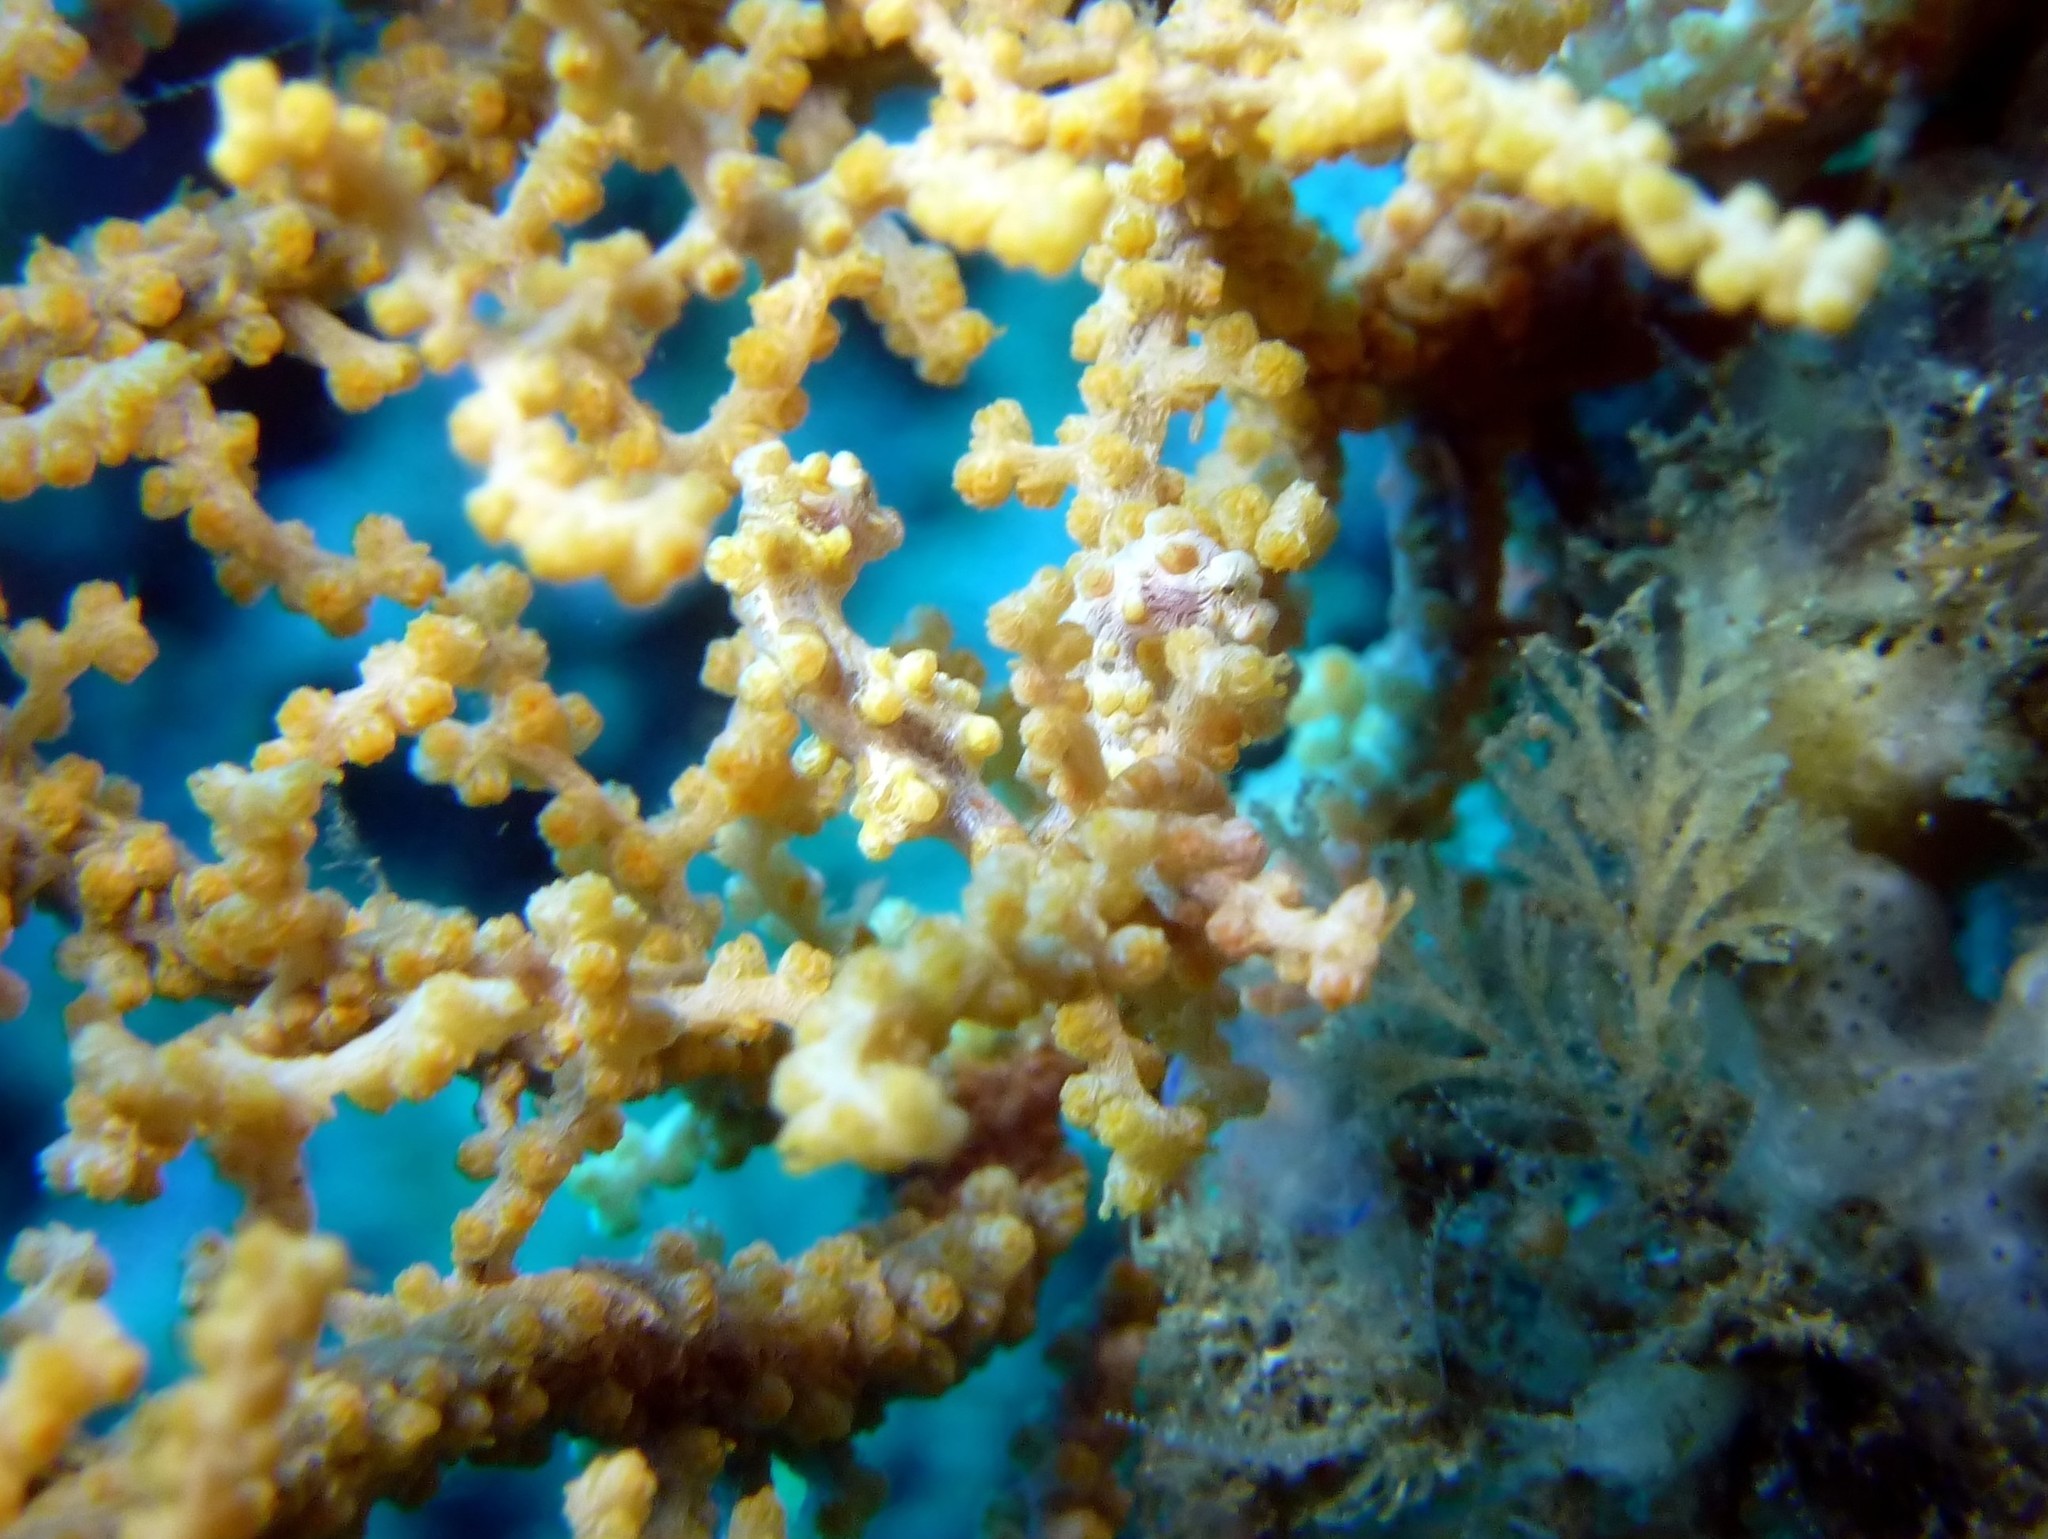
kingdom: Animalia
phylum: Chordata
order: Syngnathiformes
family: Syngnathidae
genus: Hippocampus
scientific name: Hippocampus bargibanti
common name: Bargibant's seahorse
